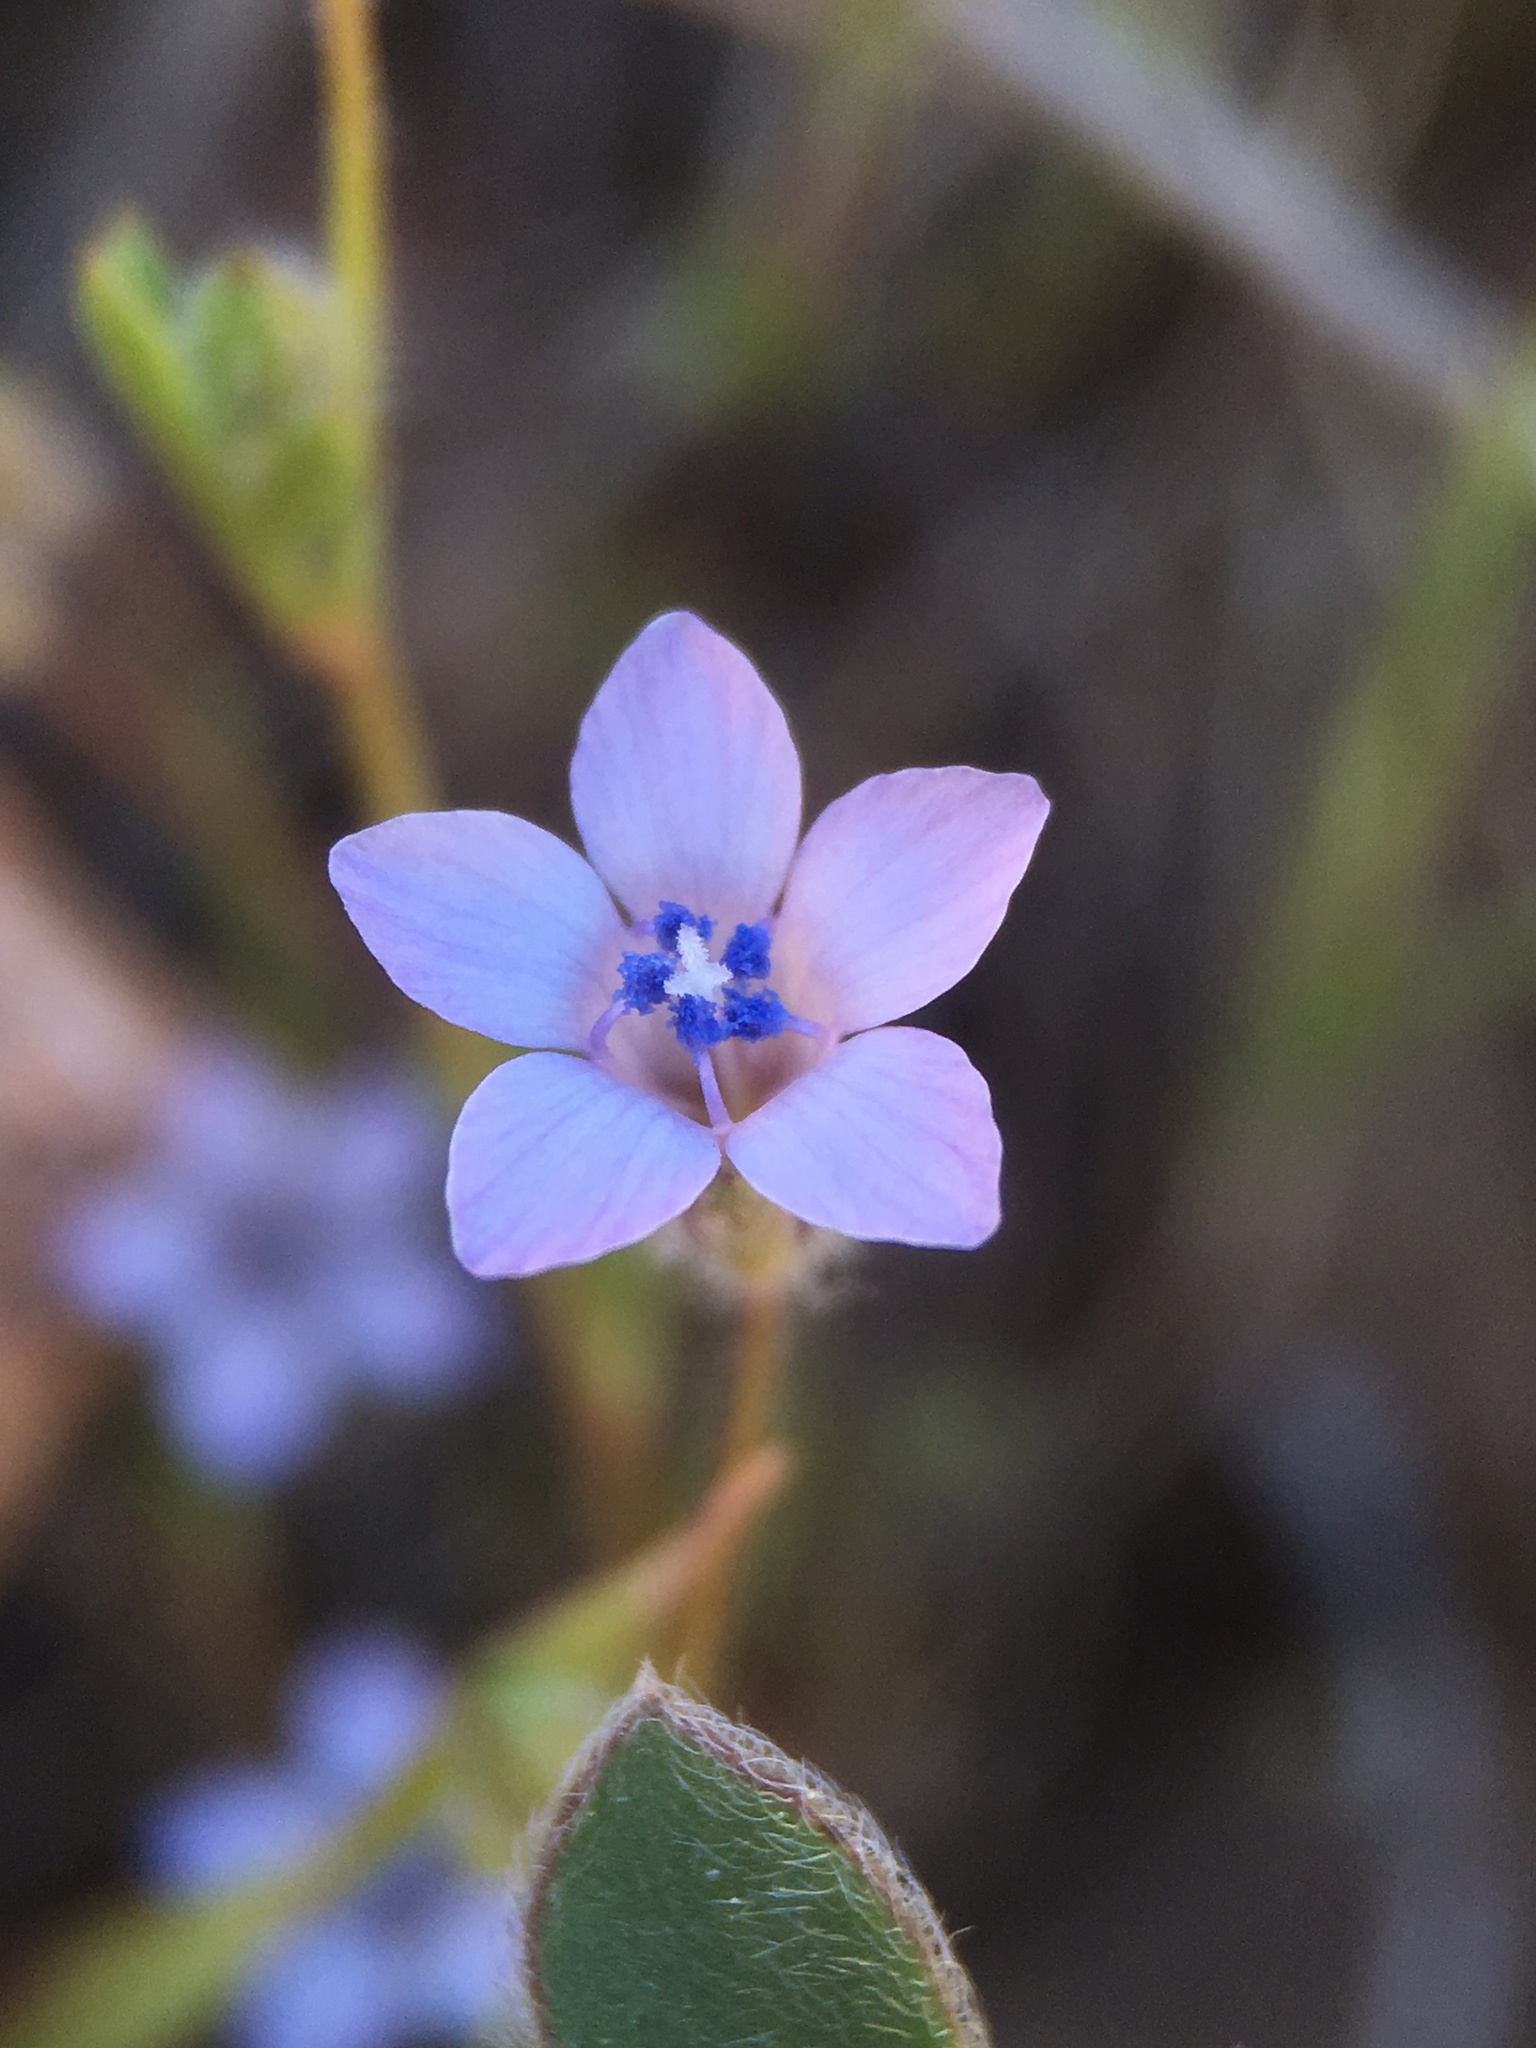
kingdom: Plantae
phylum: Tracheophyta
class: Magnoliopsida
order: Ericales
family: Polemoniaceae
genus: Gilia
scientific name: Gilia achilleifolia
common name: California gily-flower
